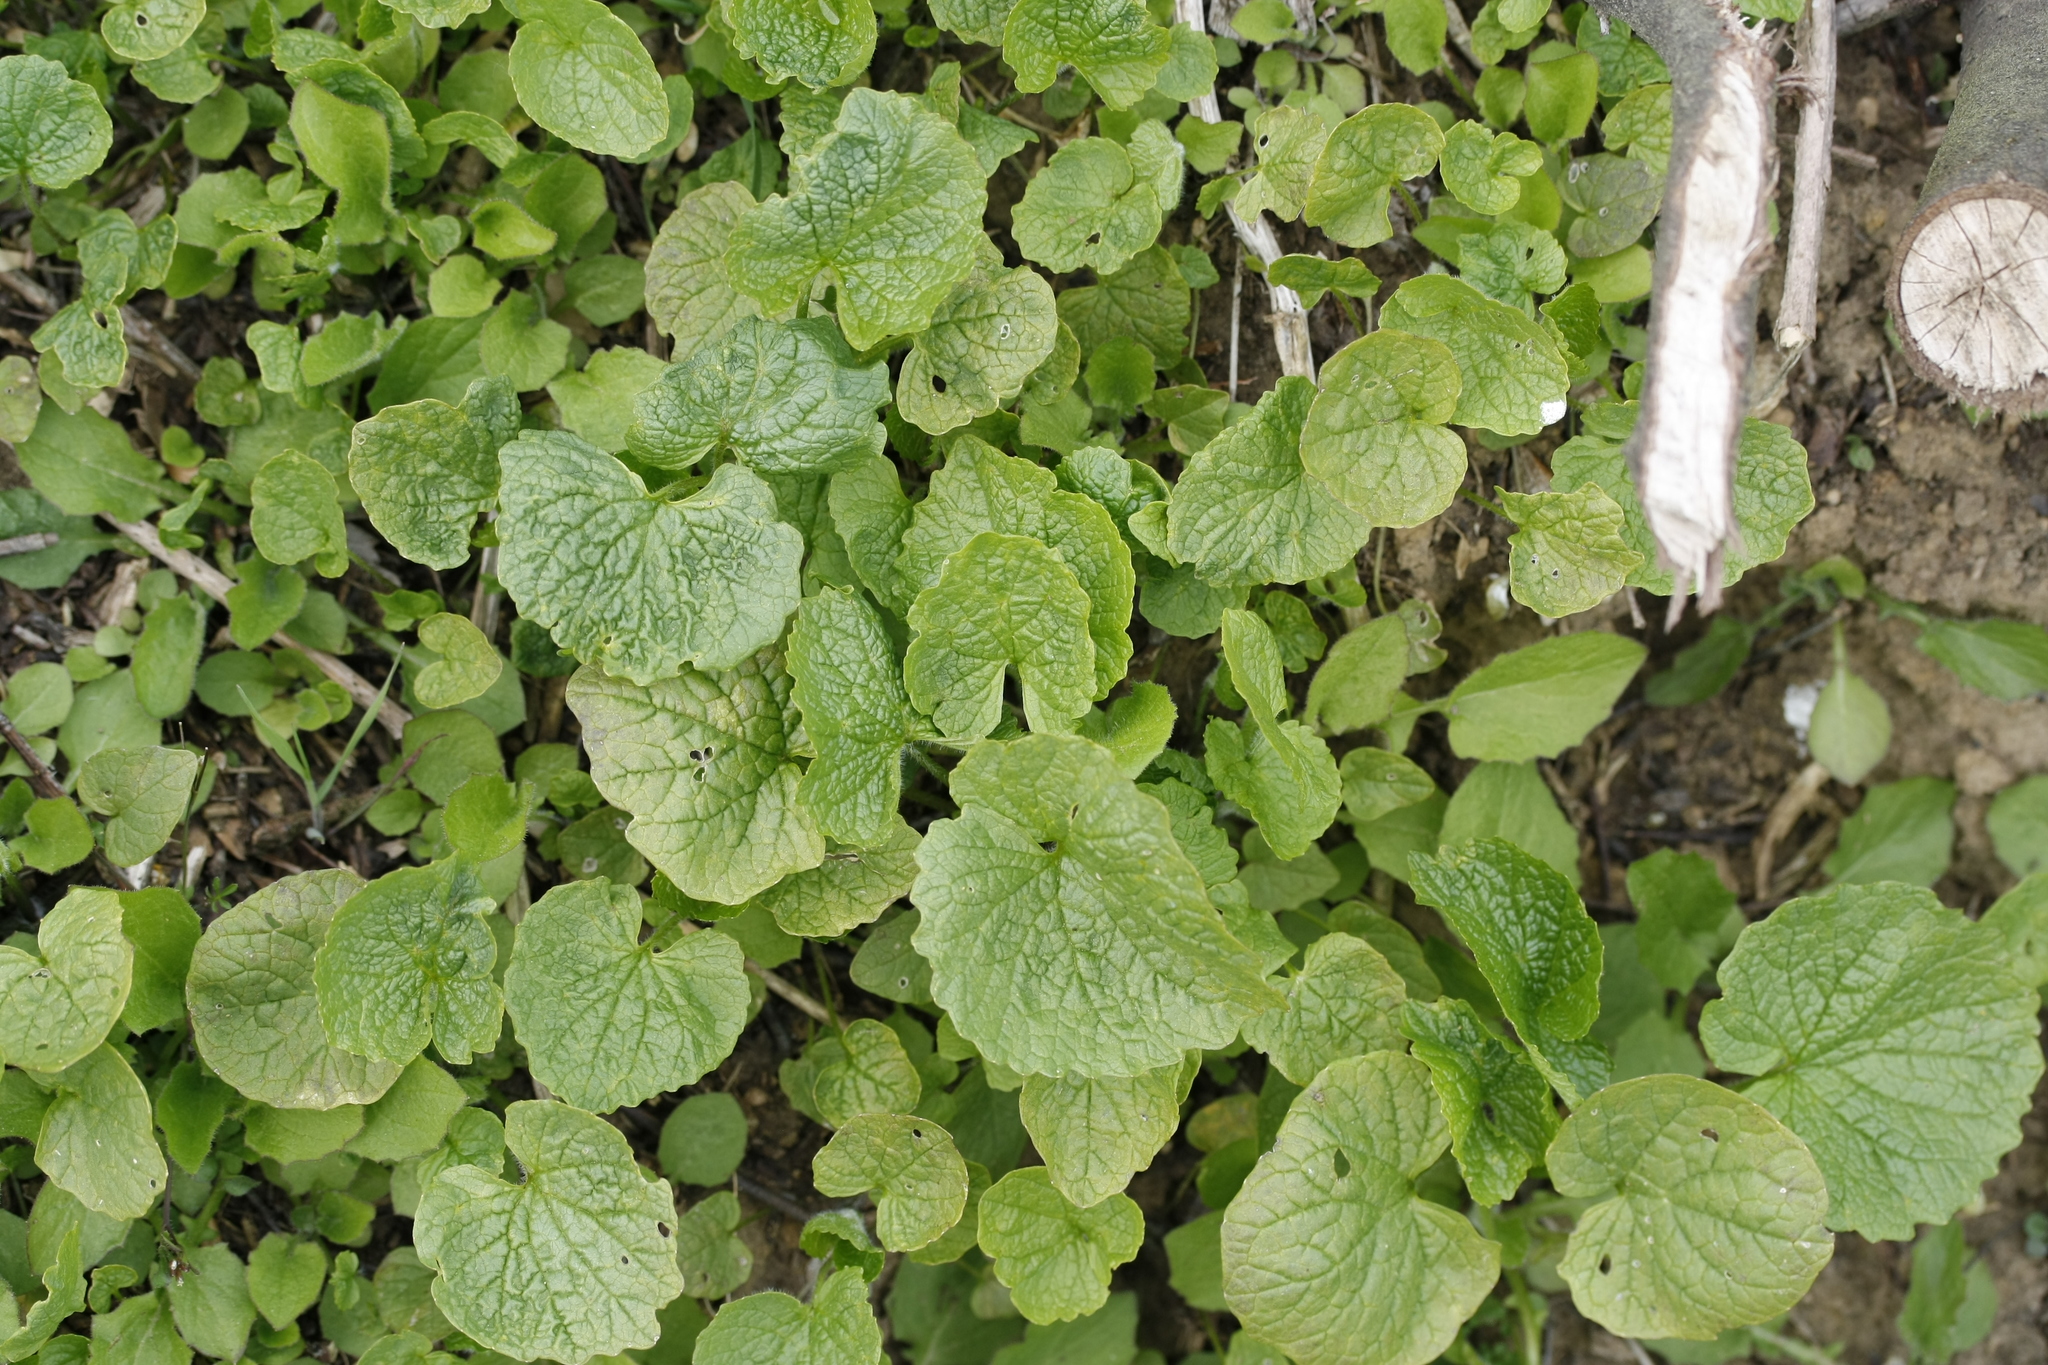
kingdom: Plantae
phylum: Tracheophyta
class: Magnoliopsida
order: Brassicales
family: Brassicaceae
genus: Alliaria
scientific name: Alliaria petiolata
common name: Garlic mustard
